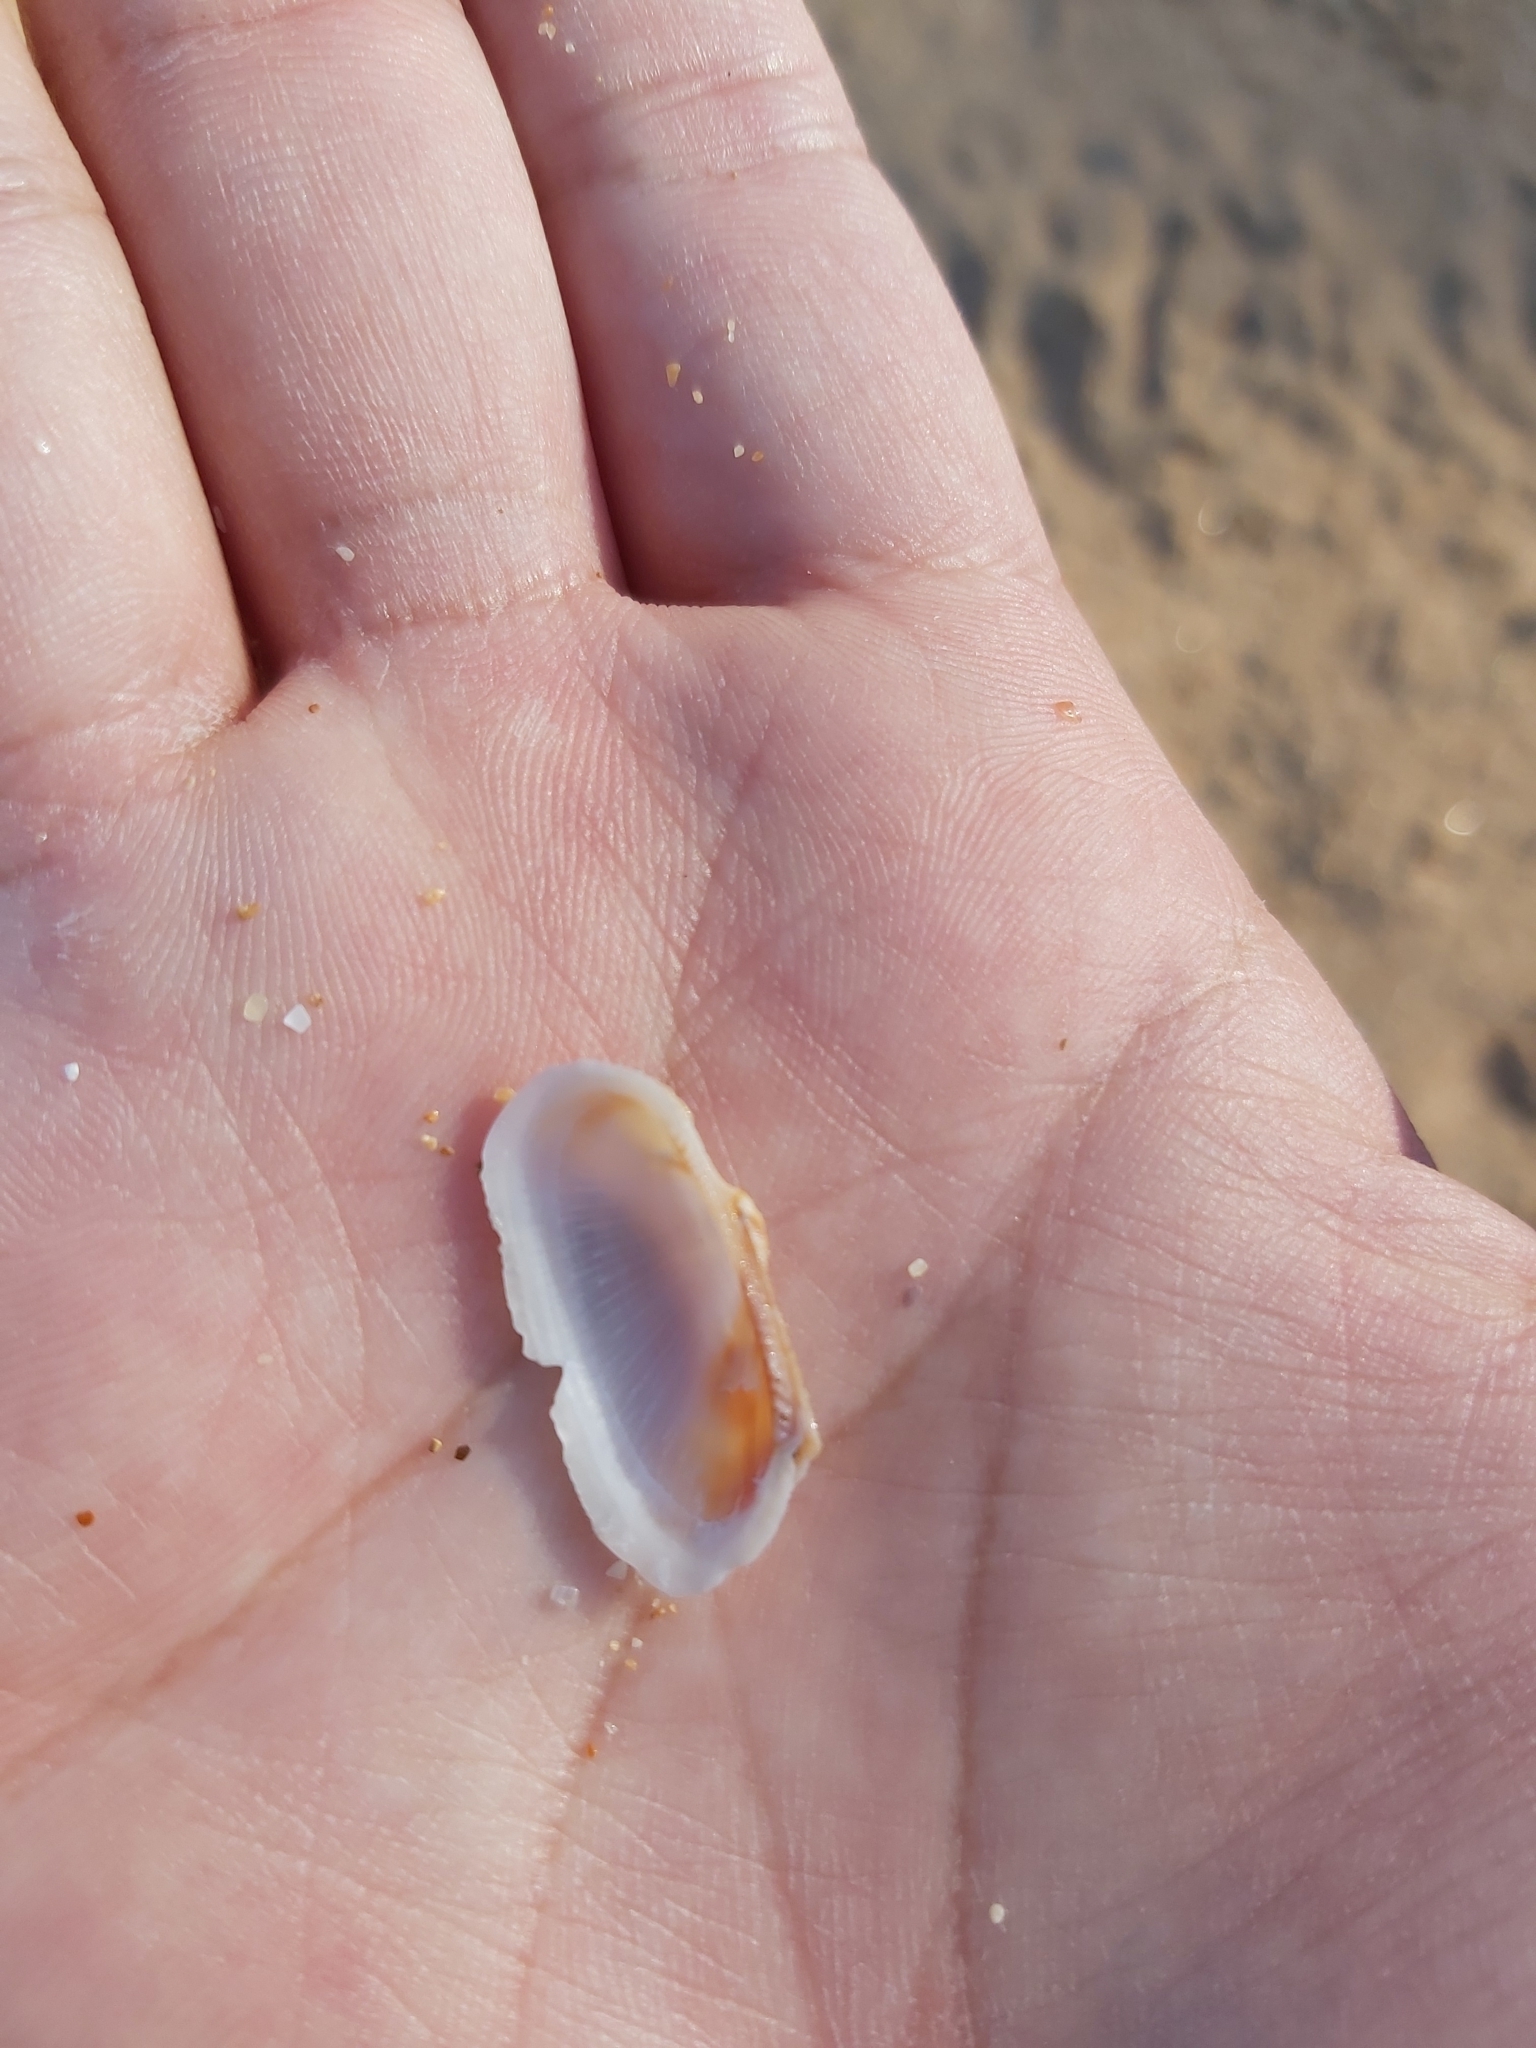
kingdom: Animalia
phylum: Mollusca
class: Bivalvia
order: Arcida
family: Arcidae
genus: Barbatia
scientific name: Barbatia pistachia
